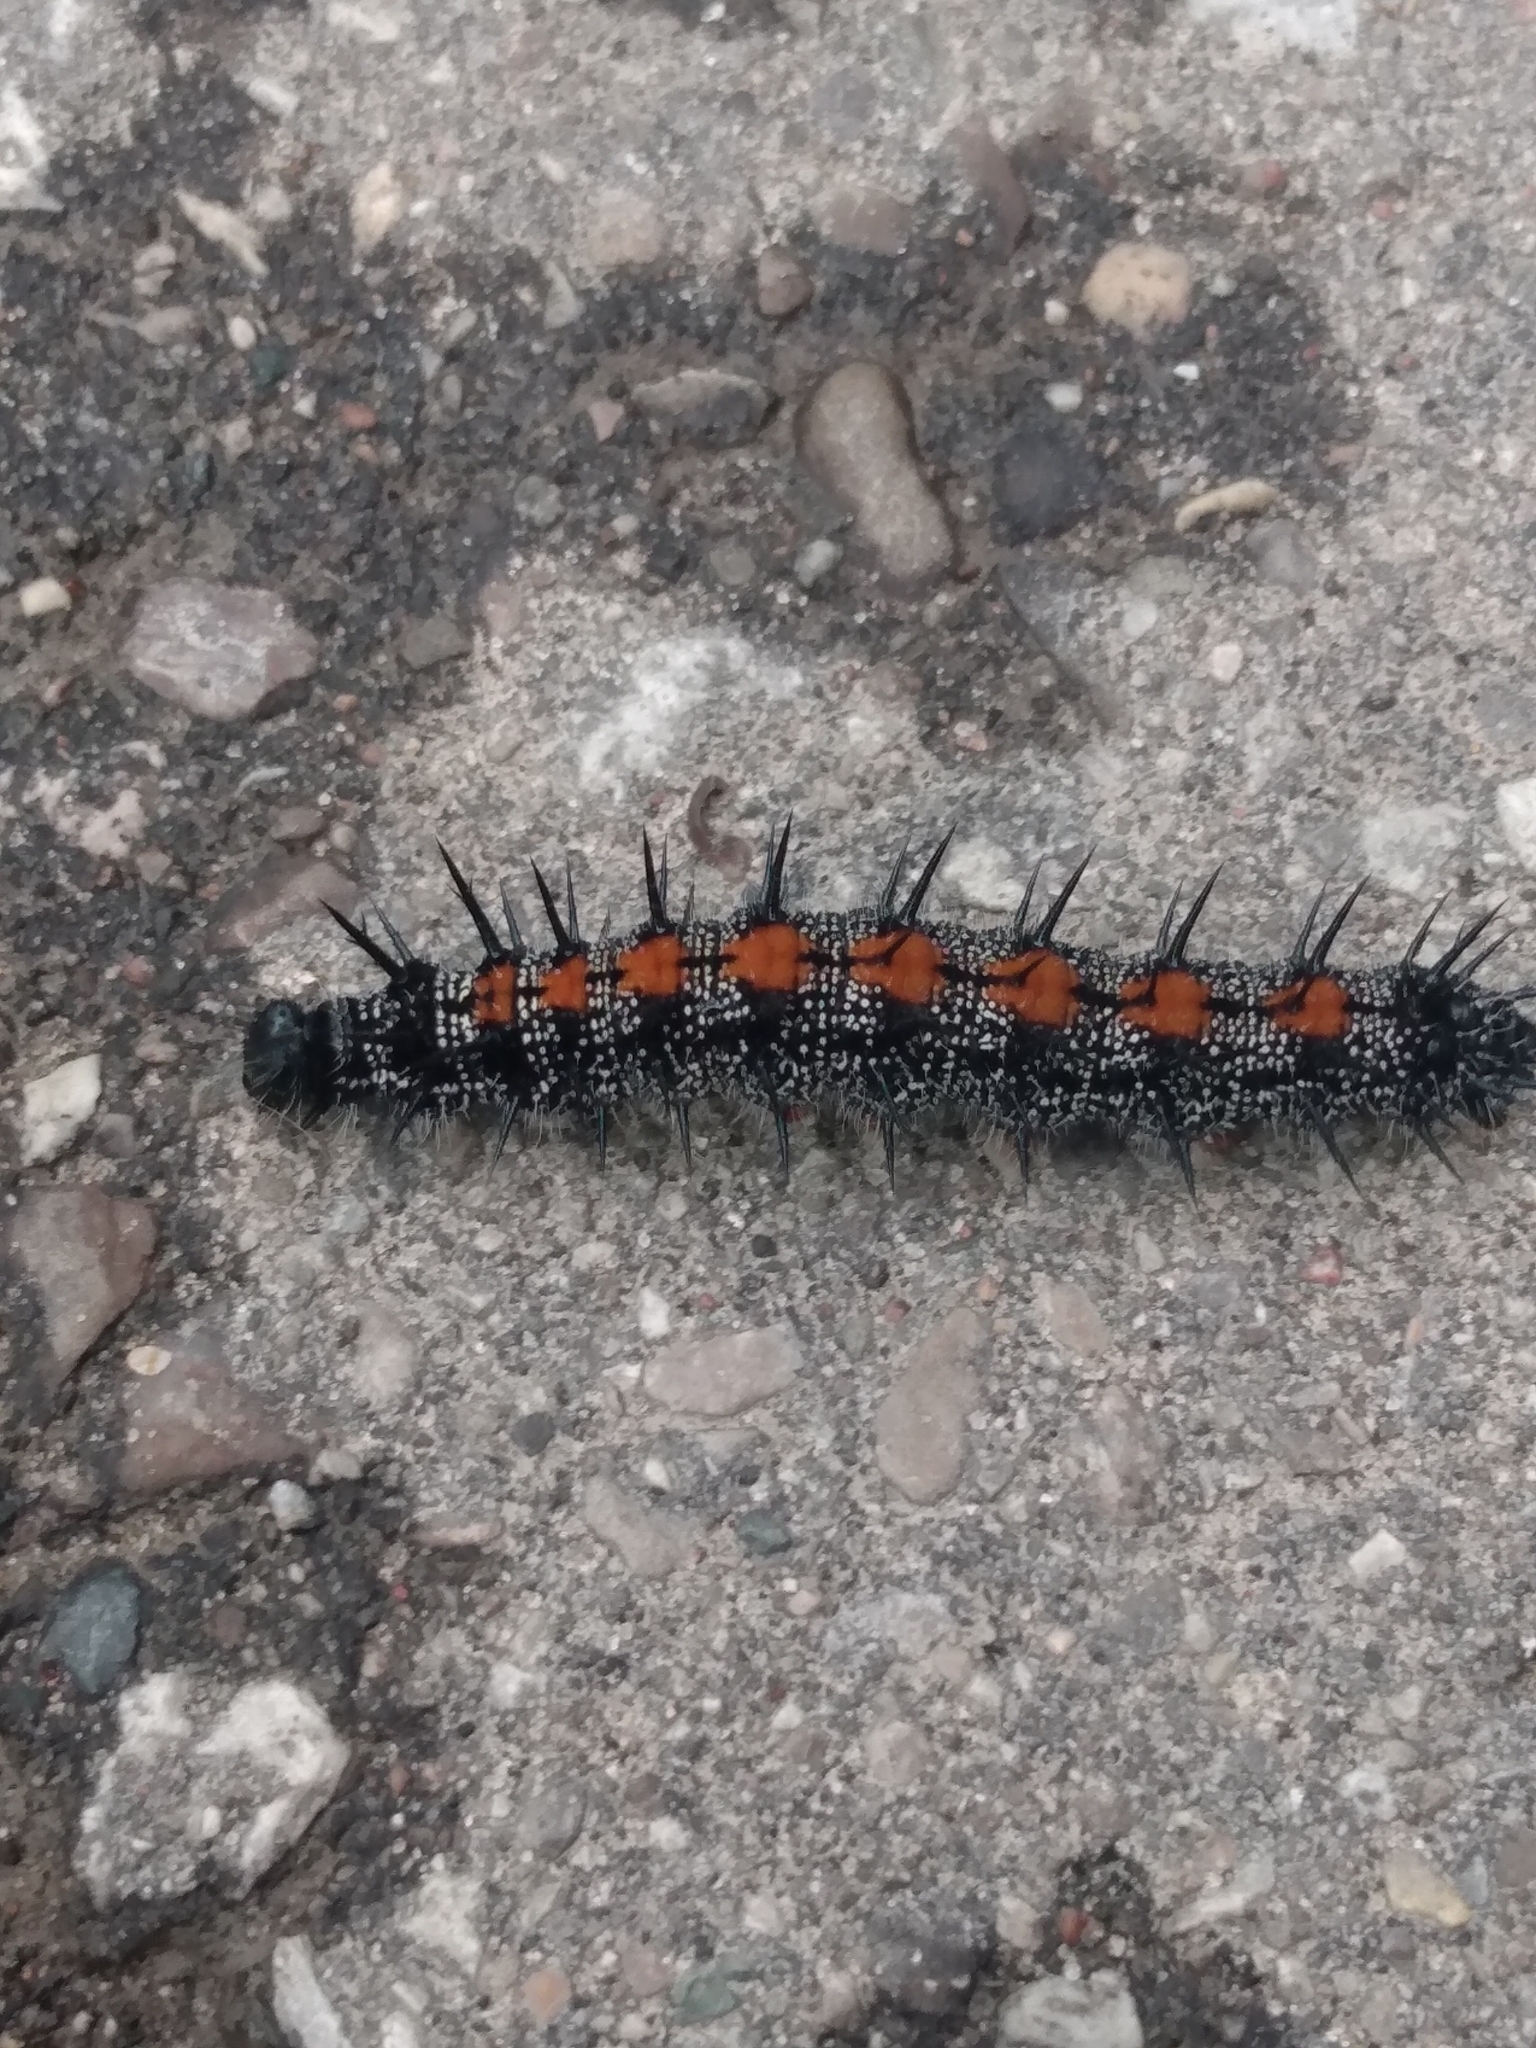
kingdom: Animalia
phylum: Arthropoda
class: Insecta
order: Lepidoptera
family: Nymphalidae
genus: Nymphalis
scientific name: Nymphalis antiopa
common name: Camberwell beauty
